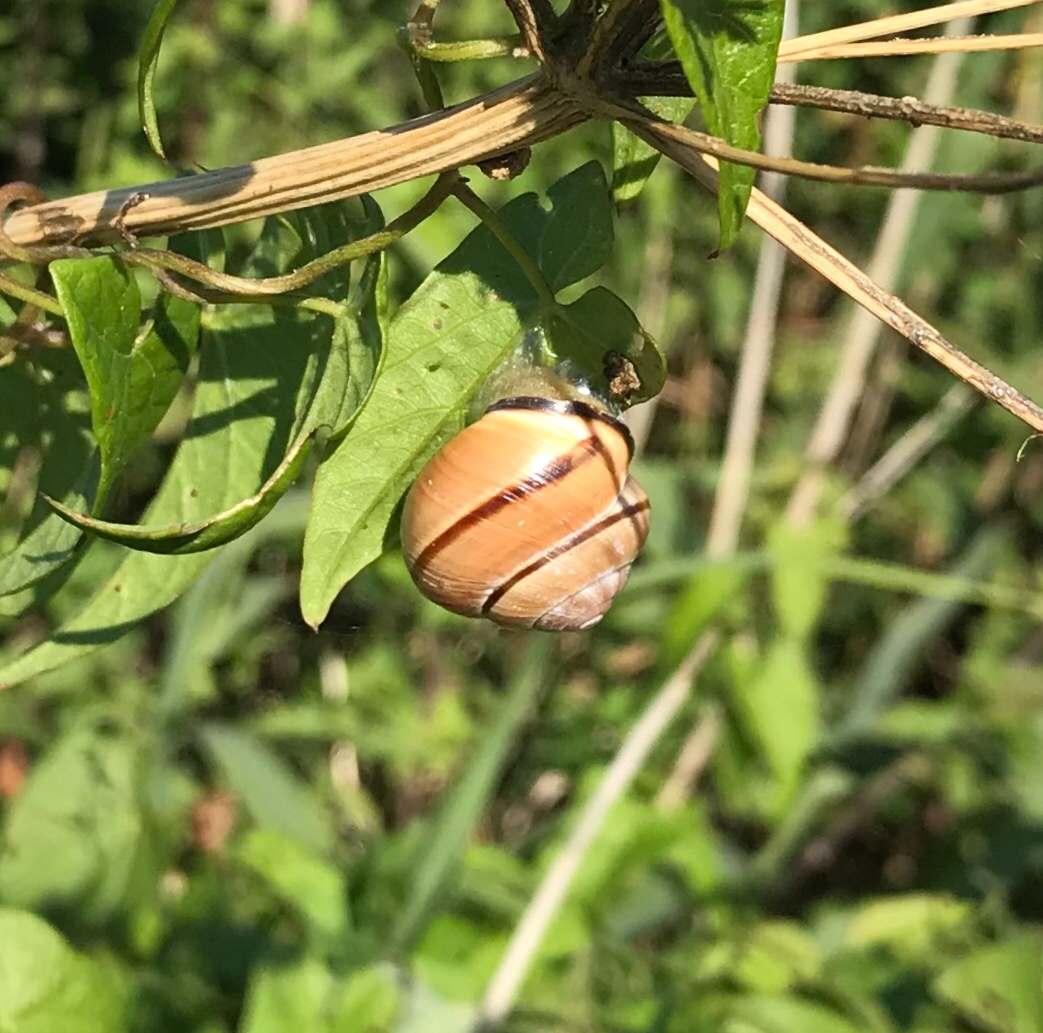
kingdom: Animalia
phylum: Mollusca
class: Gastropoda
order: Stylommatophora
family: Helicidae
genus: Cepaea
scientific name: Cepaea nemoralis
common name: Grovesnail
